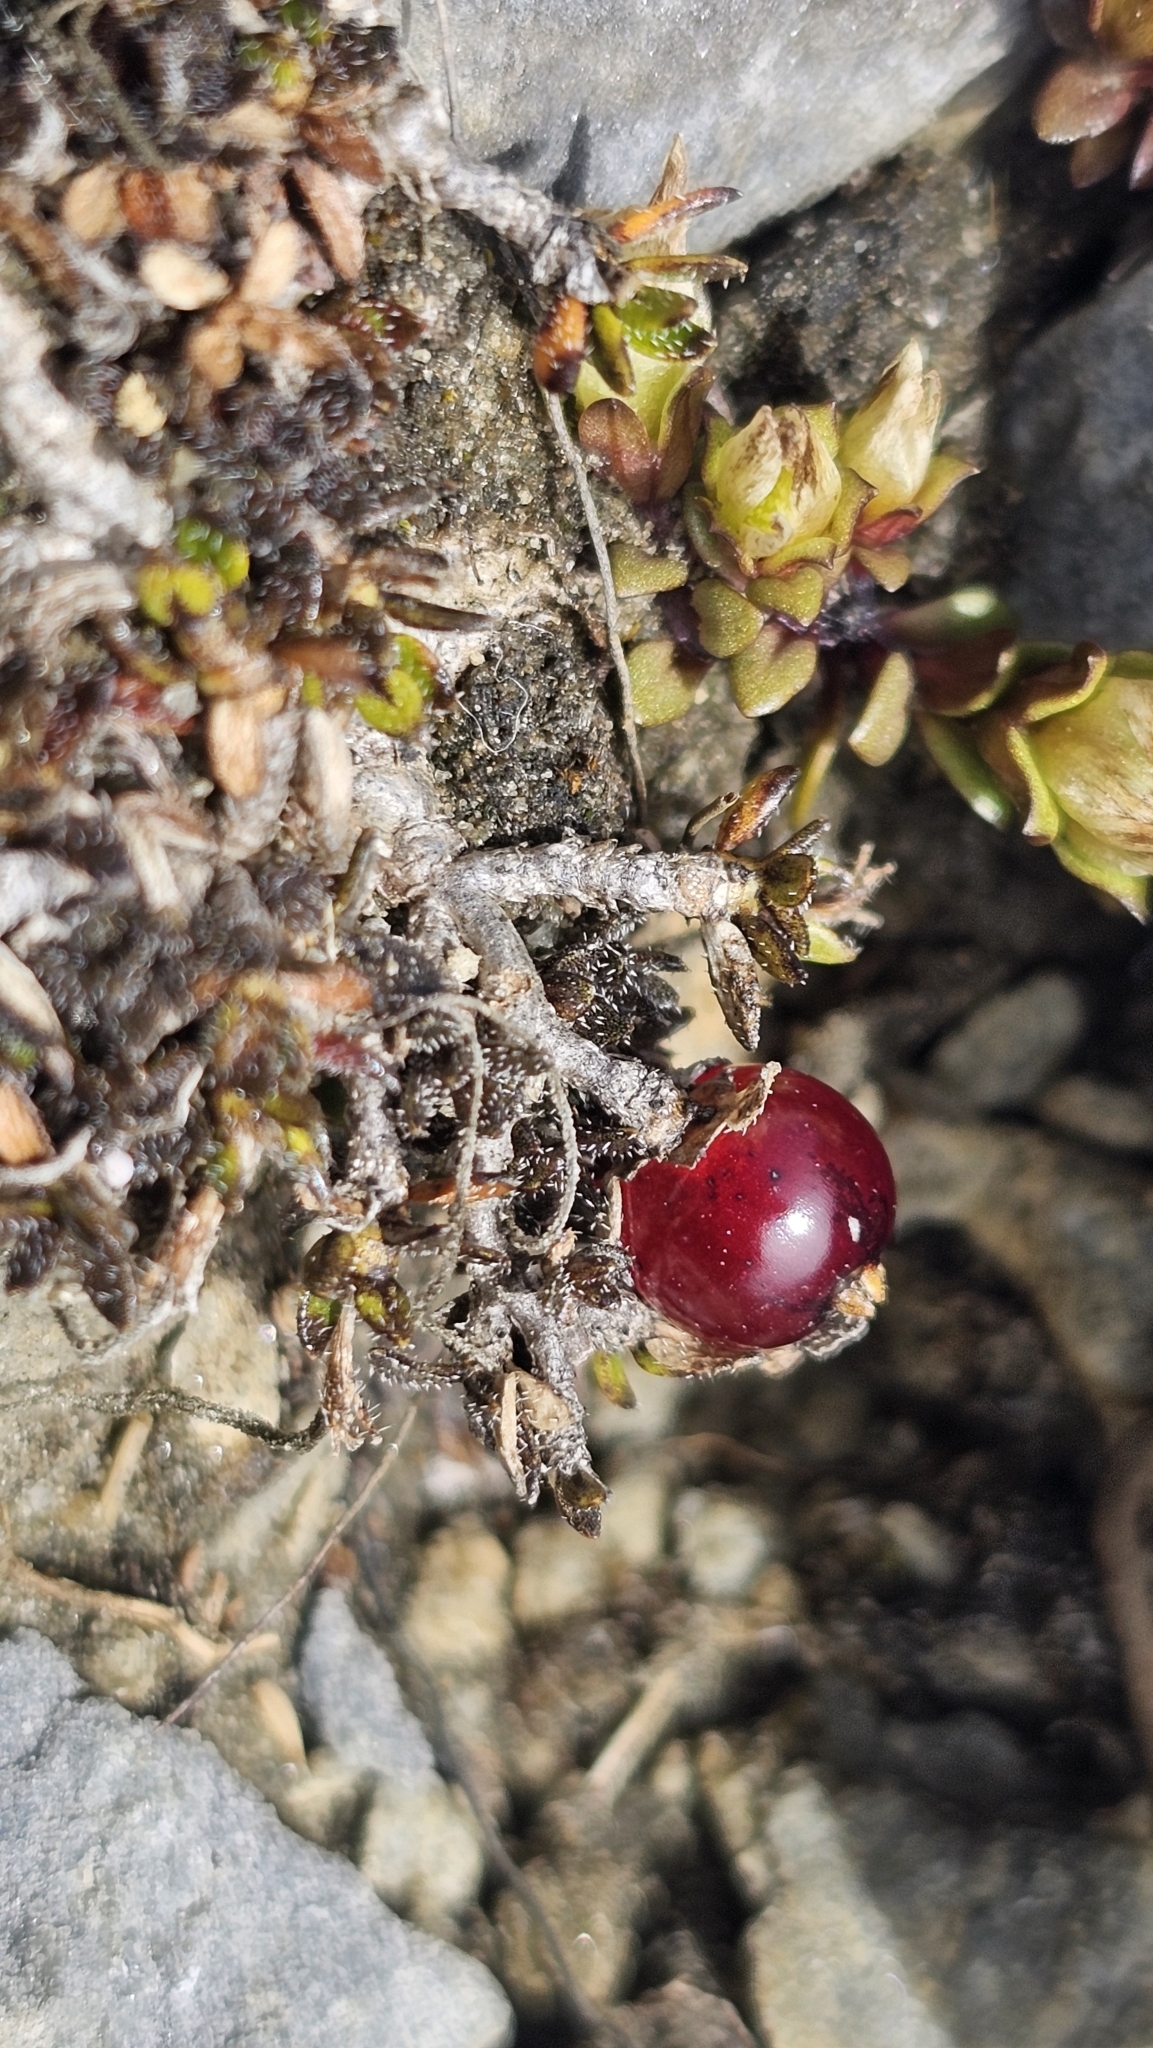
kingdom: Plantae
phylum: Tracheophyta
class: Magnoliopsida
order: Gentianales
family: Rubiaceae
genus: Coprosma
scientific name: Coprosma atropurpurea
